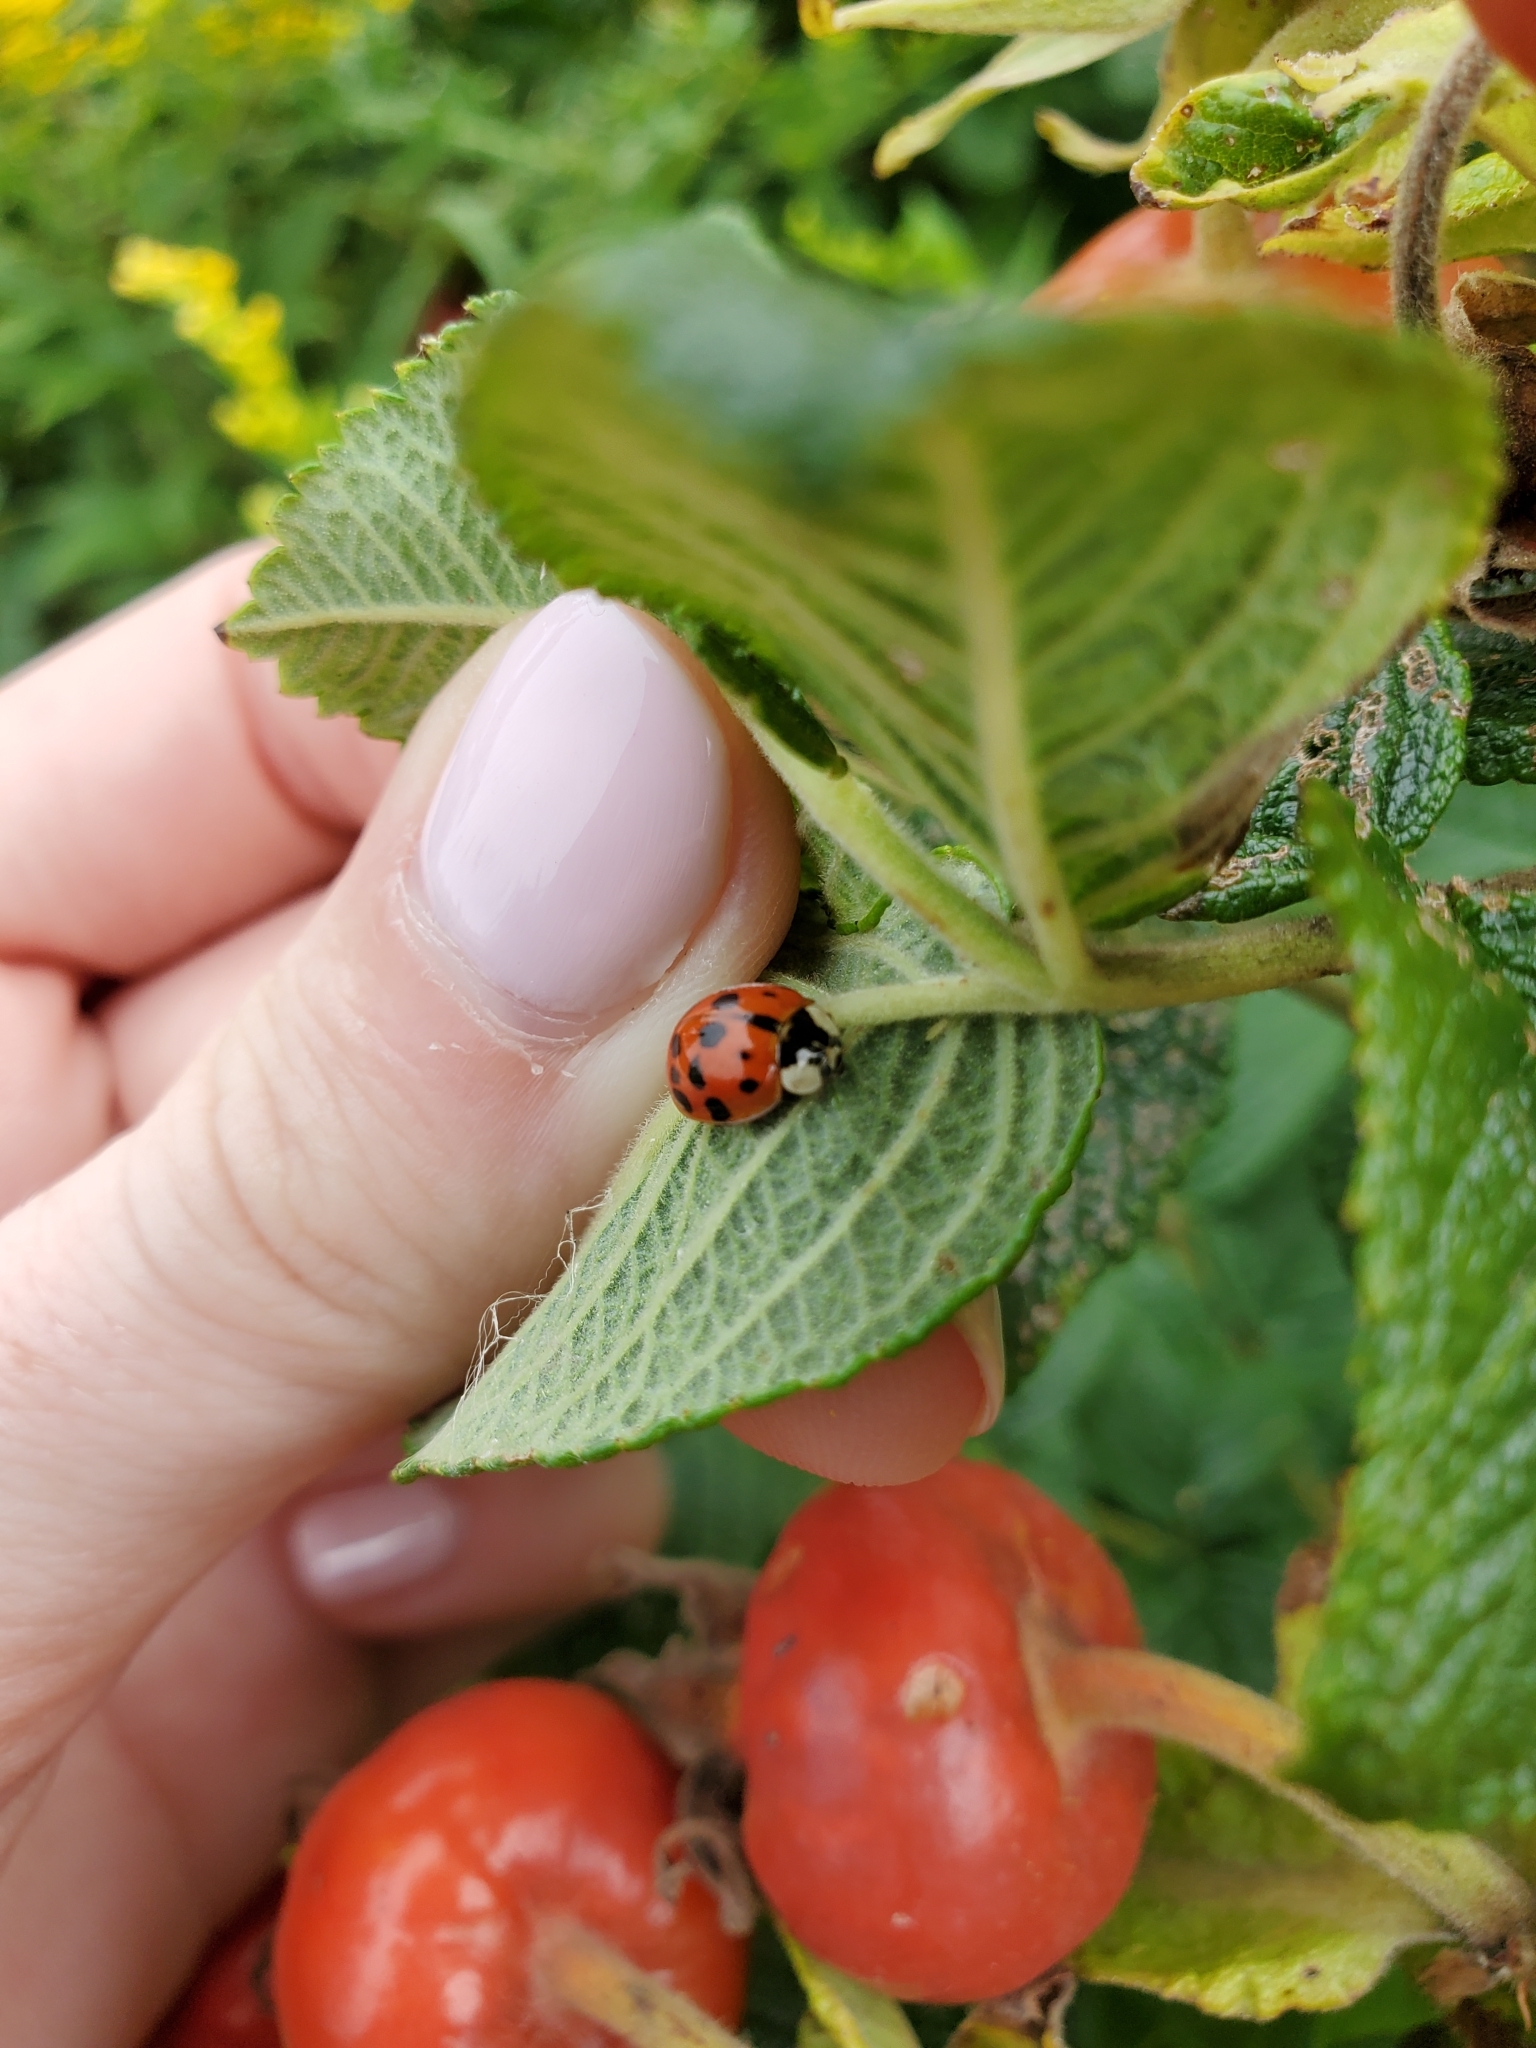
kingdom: Animalia
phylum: Arthropoda
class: Insecta
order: Coleoptera
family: Coccinellidae
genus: Harmonia
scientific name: Harmonia axyridis
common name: Harlequin ladybird
